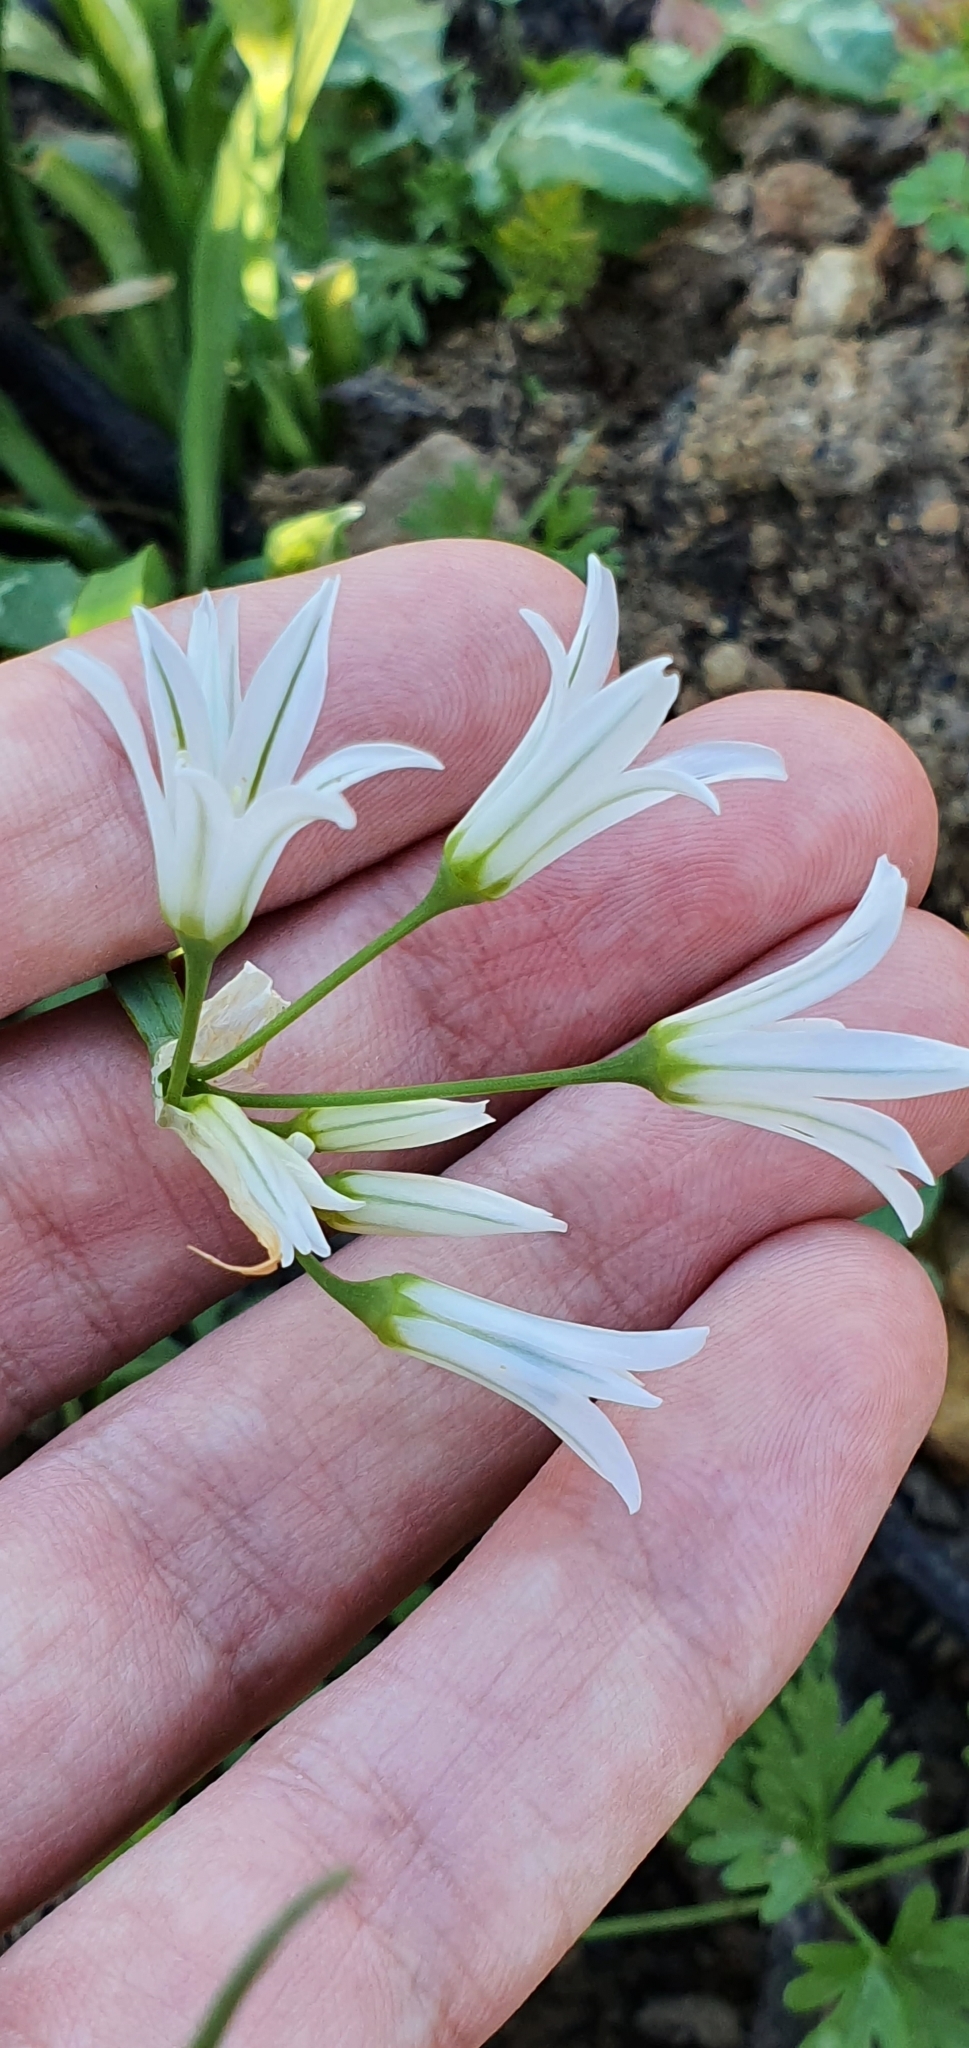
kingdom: Plantae
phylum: Tracheophyta
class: Liliopsida
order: Asparagales
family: Amaryllidaceae
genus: Allium
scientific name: Allium triquetrum
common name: Three-cornered garlic
